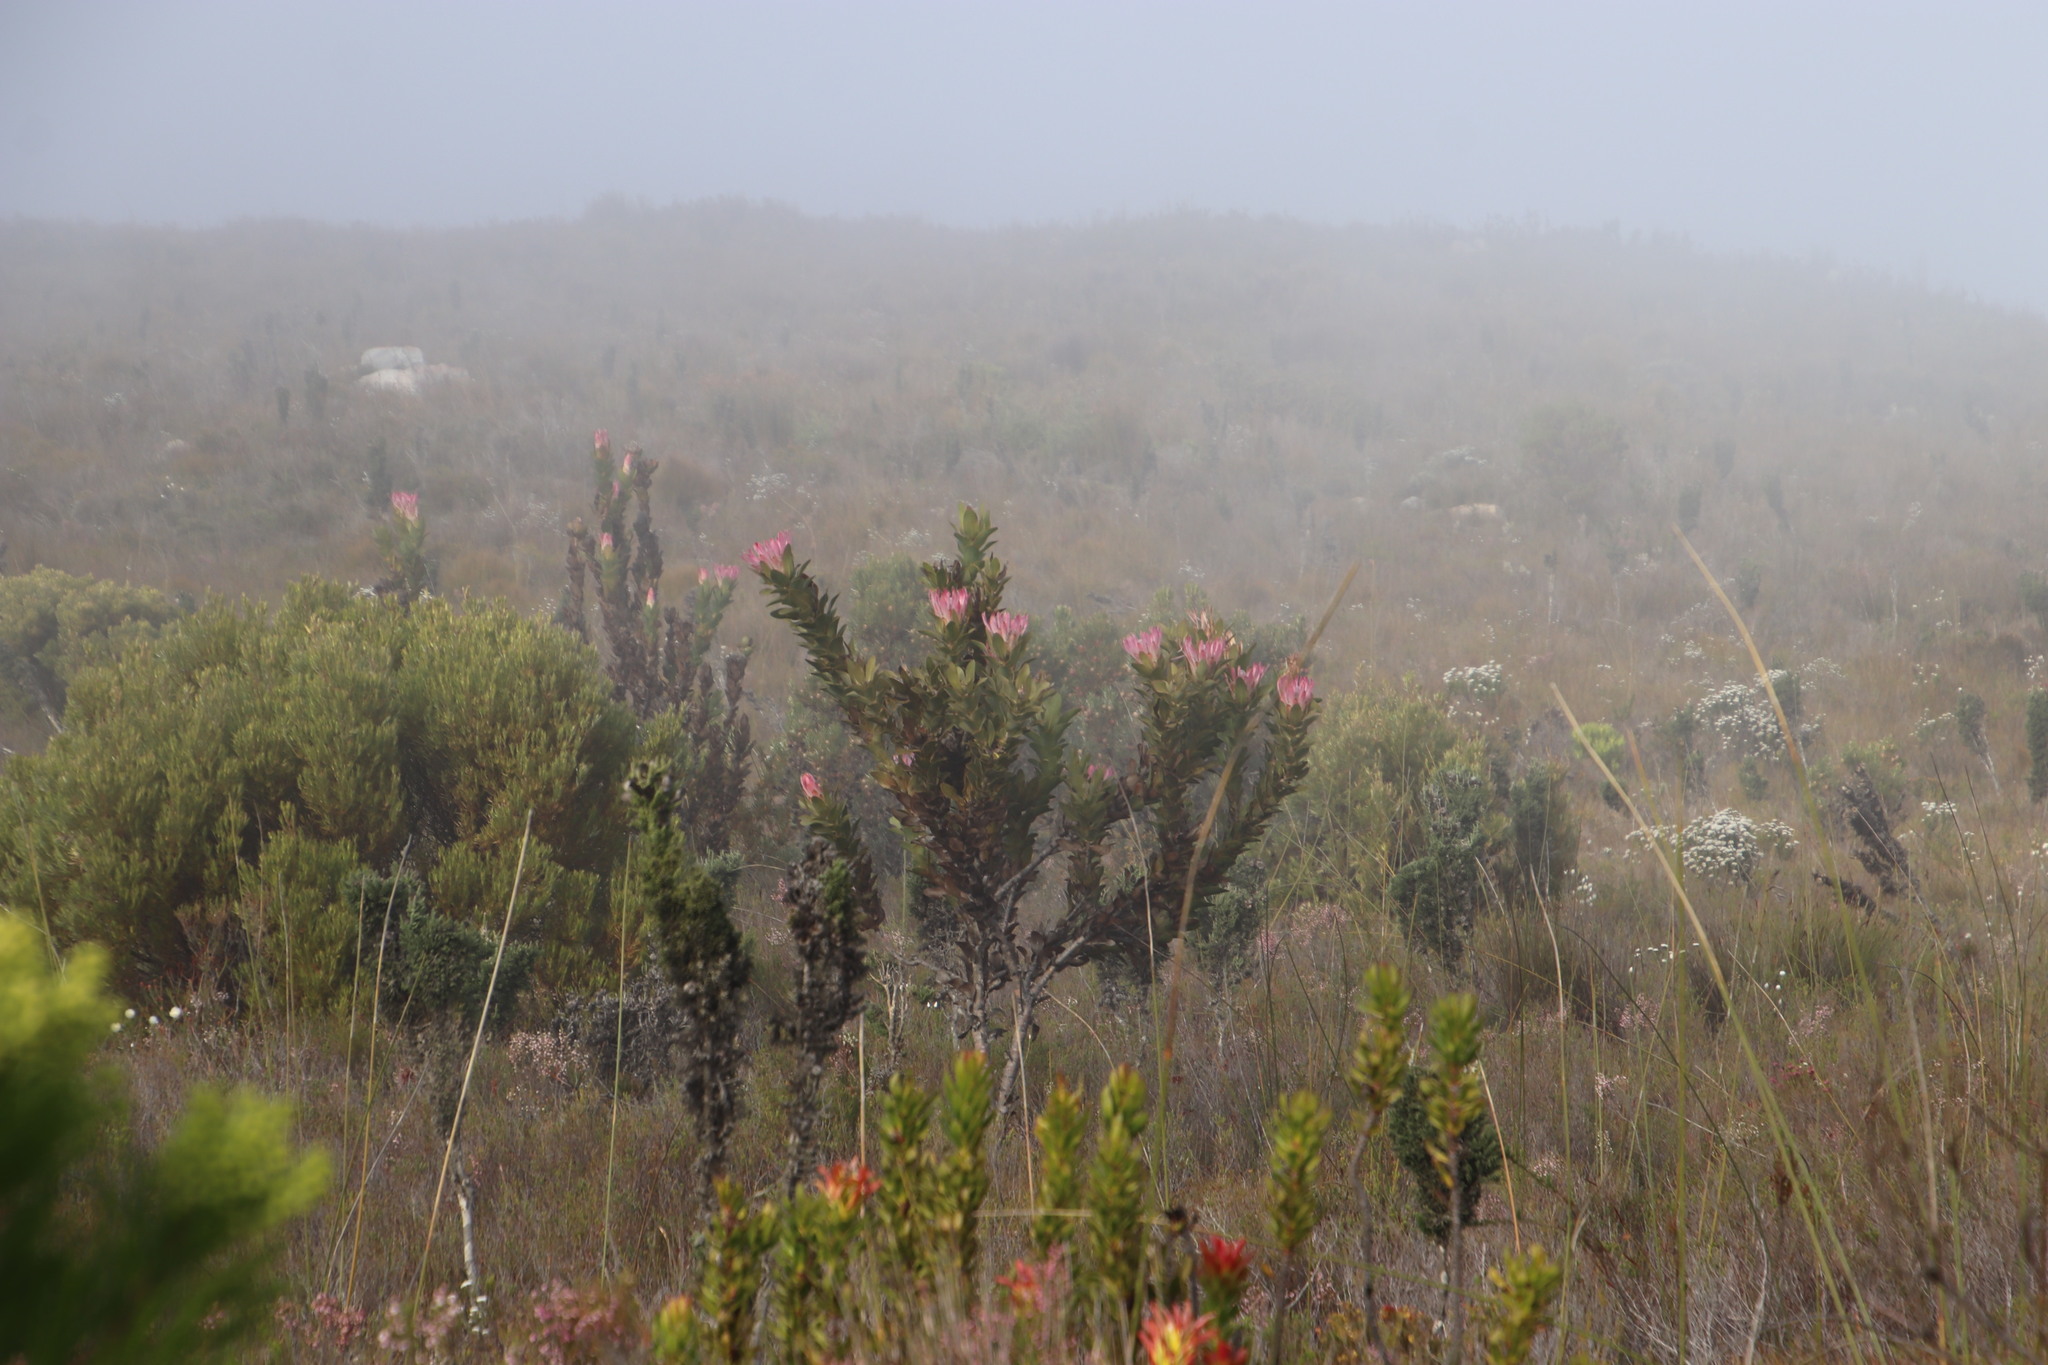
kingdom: Plantae
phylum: Tracheophyta
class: Magnoliopsida
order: Proteales
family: Proteaceae
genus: Protea
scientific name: Protea compacta
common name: Bot river protea
